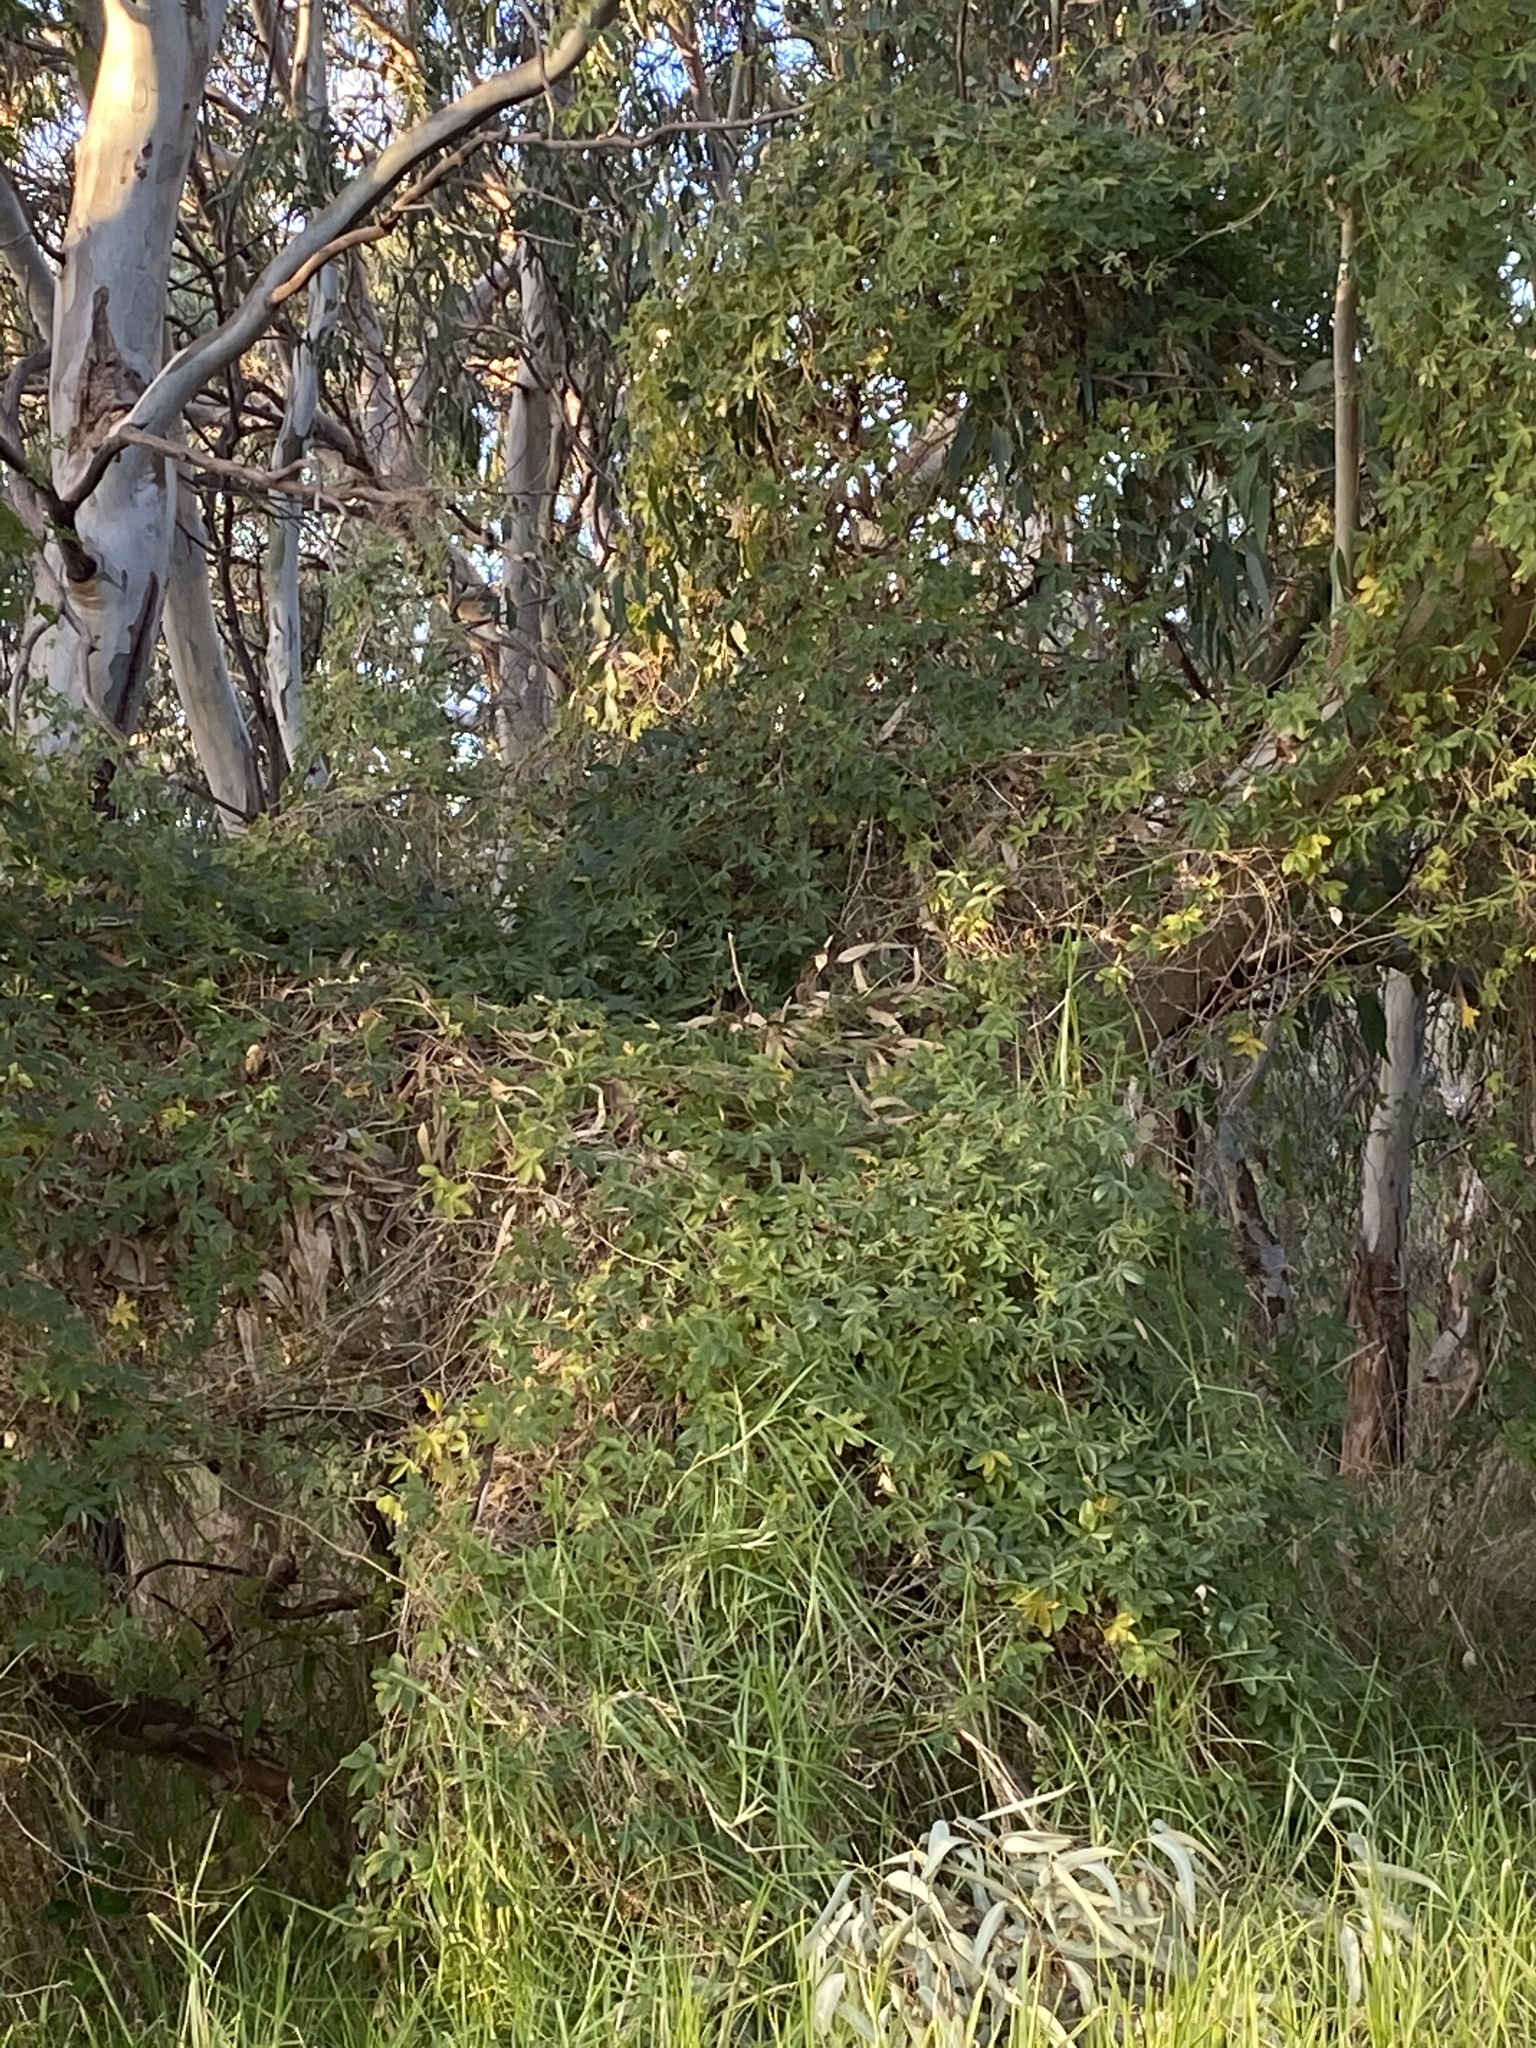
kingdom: Plantae
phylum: Tracheophyta
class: Magnoliopsida
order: Malpighiales
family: Passifloraceae
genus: Passiflora
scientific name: Passiflora caerulea
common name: Blue passionflower
